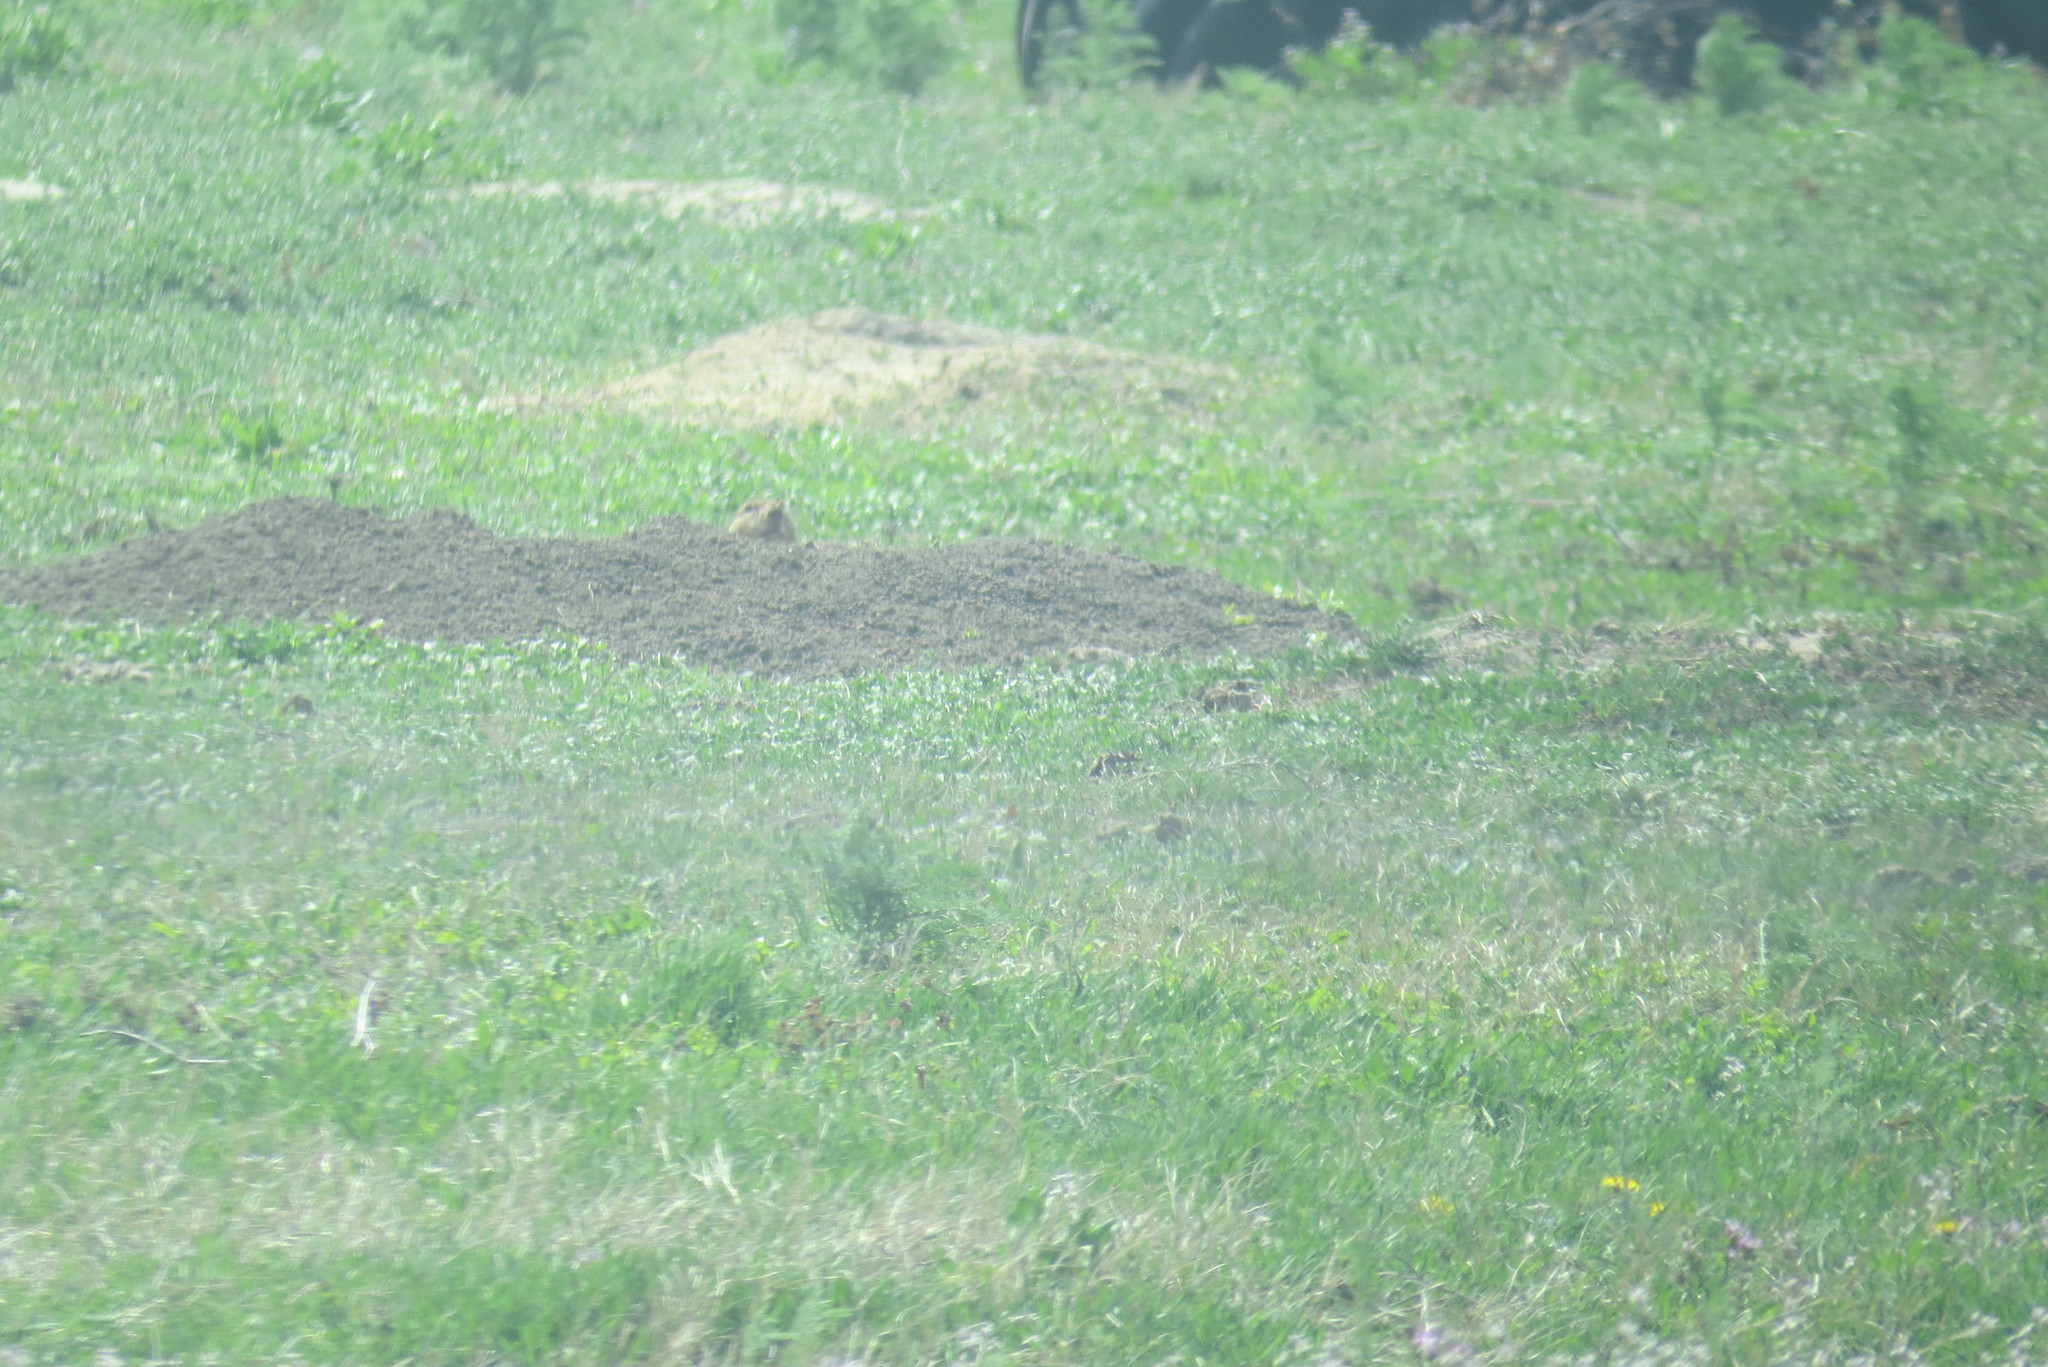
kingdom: Animalia
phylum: Chordata
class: Mammalia
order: Rodentia
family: Sciuridae
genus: Cynomys
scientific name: Cynomys ludovicianus
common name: Black-tailed prairie dog
